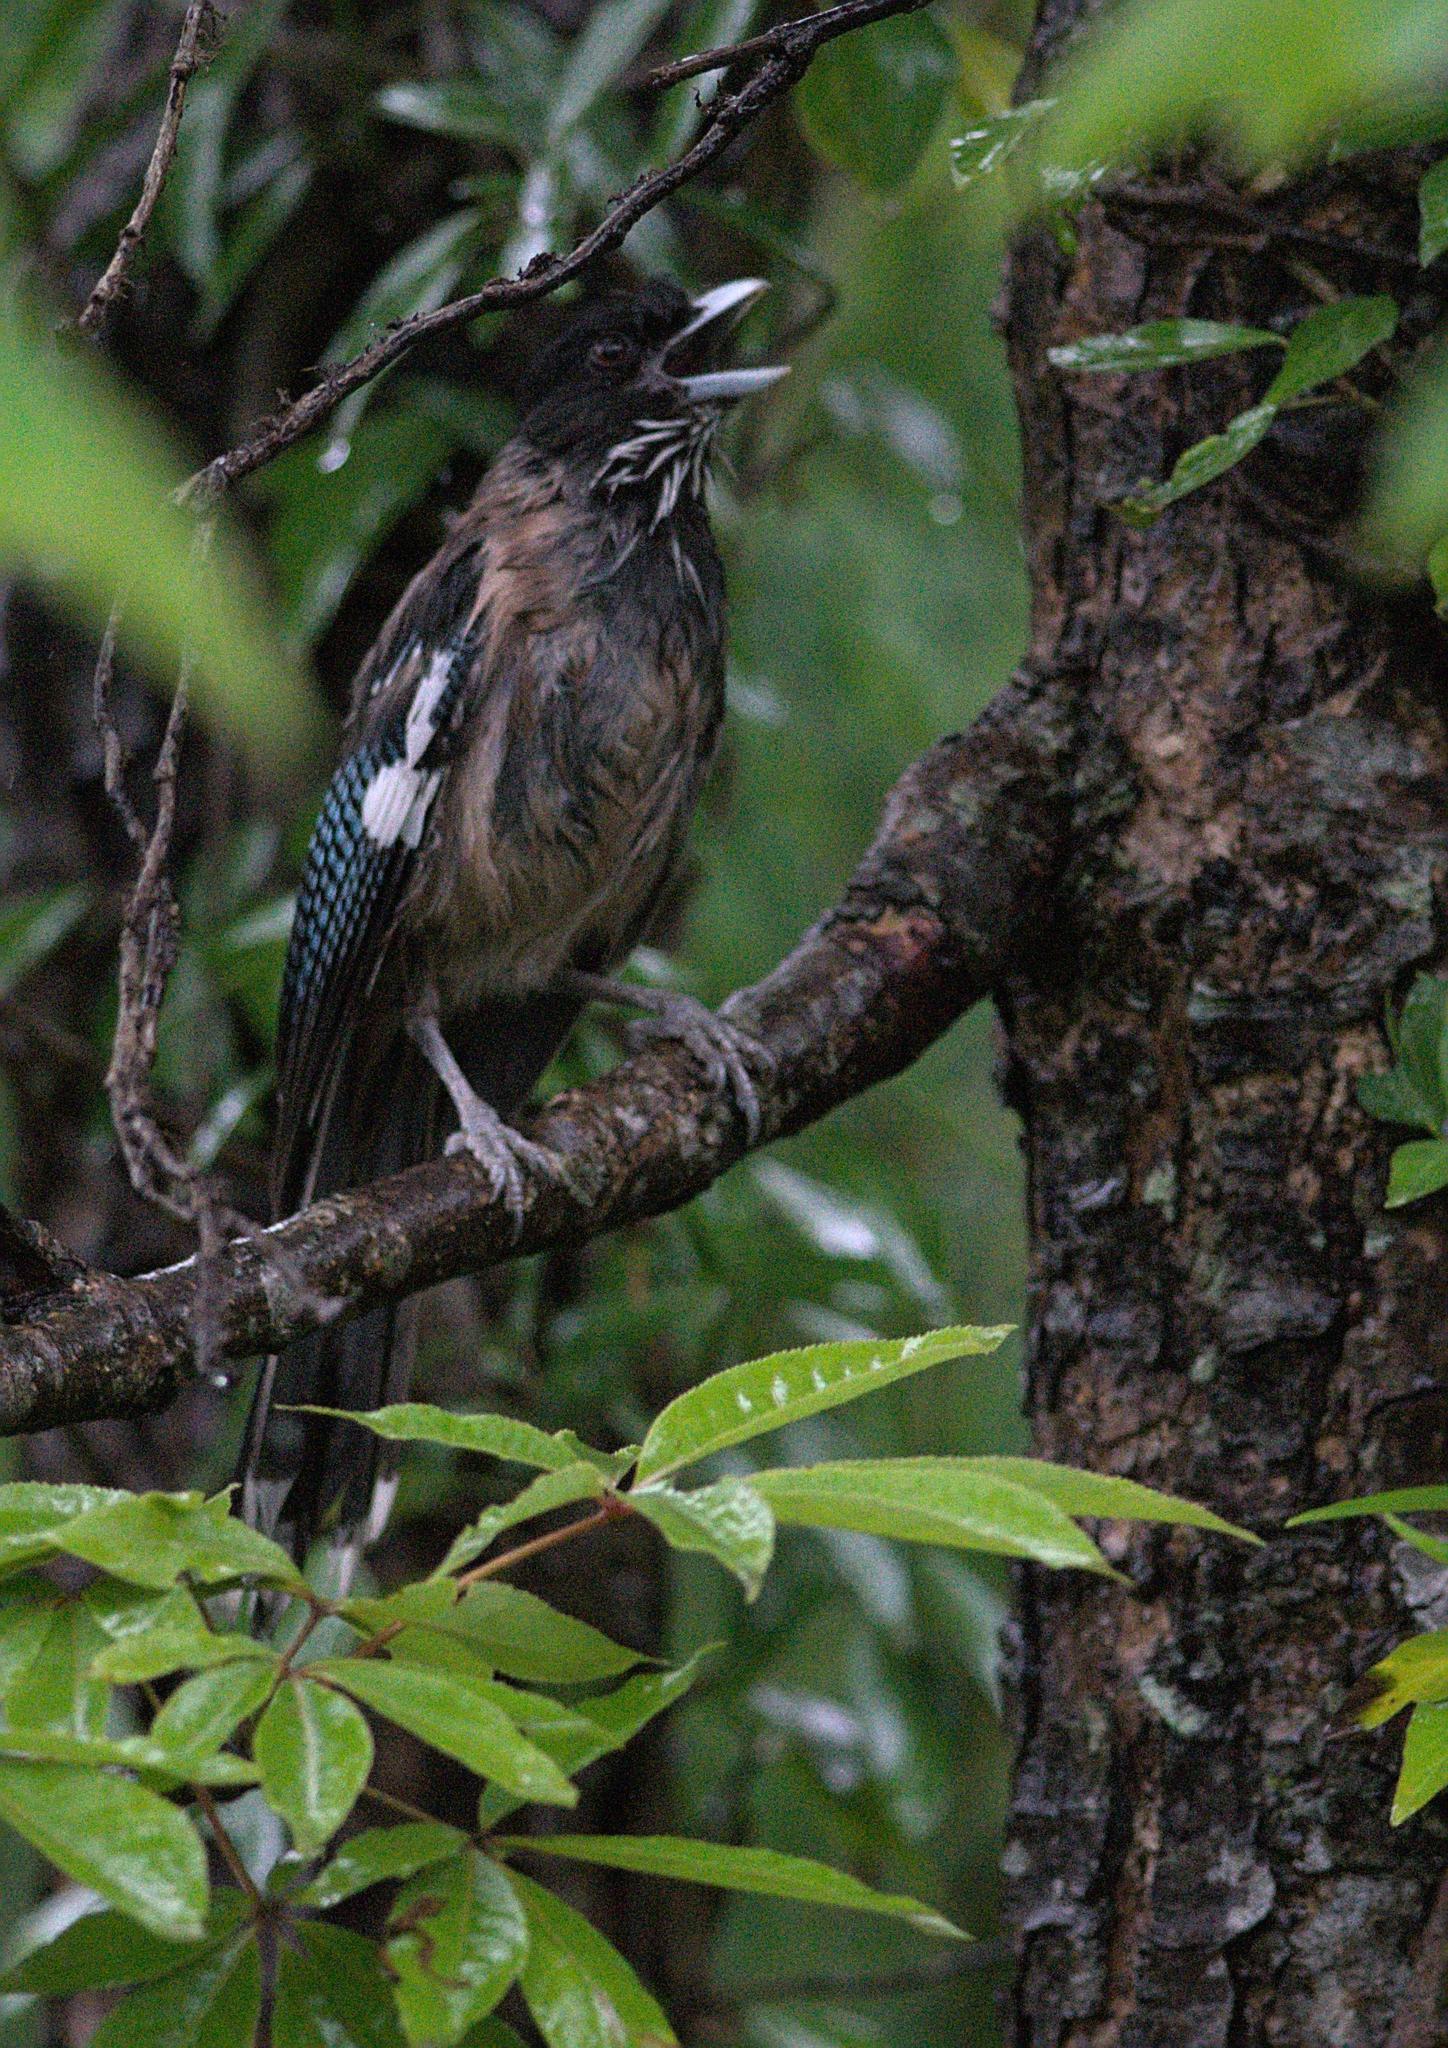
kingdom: Animalia
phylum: Chordata
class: Aves
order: Passeriformes
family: Corvidae
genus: Garrulus
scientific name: Garrulus lanceolatus
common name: Black-headed jay
